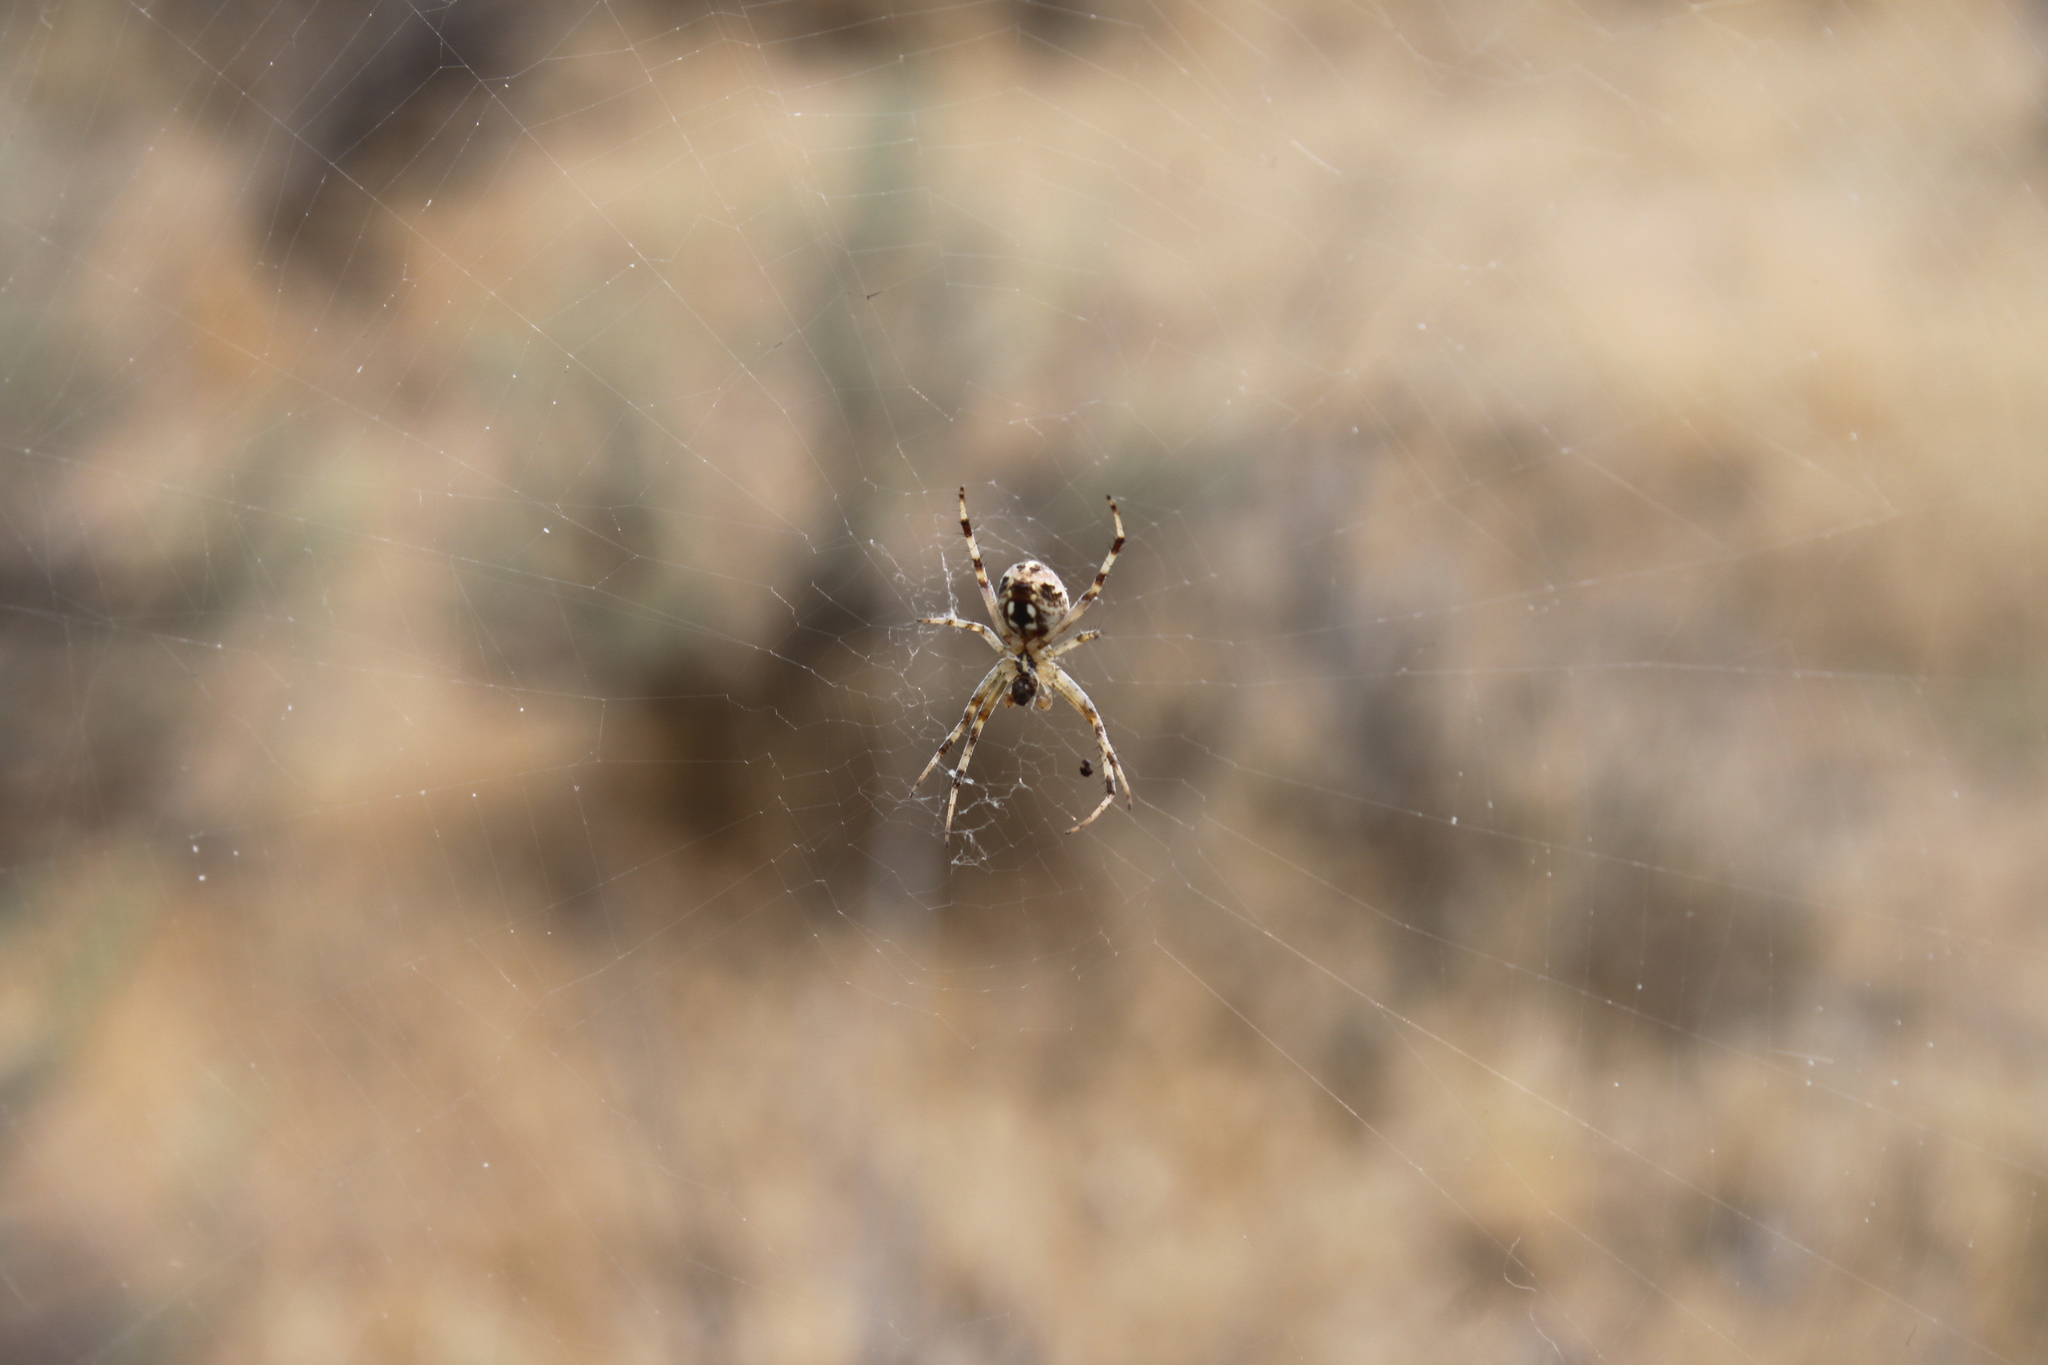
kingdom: Animalia
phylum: Arthropoda
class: Arachnida
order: Araneae
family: Araneidae
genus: Neoscona
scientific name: Neoscona oaxacensis
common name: Orb weavers
